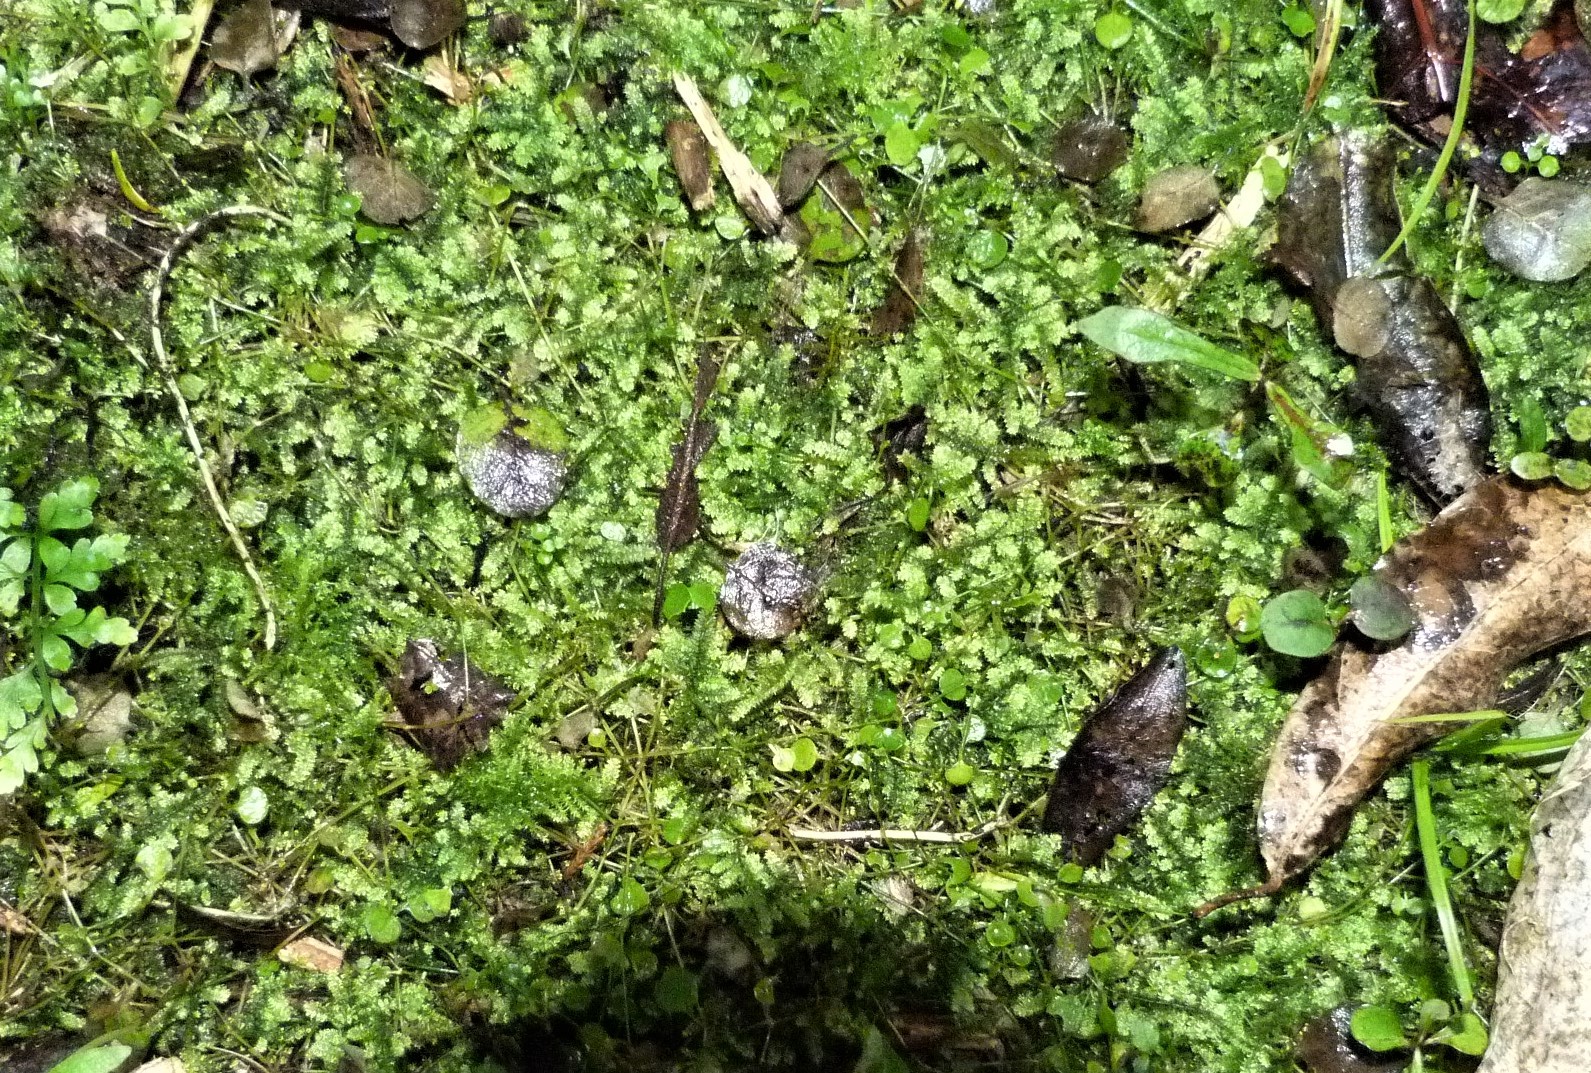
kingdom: Plantae
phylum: Bryophyta
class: Bryopsida
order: Hypnales
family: Brachytheciaceae
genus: Rhynchostegium
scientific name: Rhynchostegium tenuifolium
